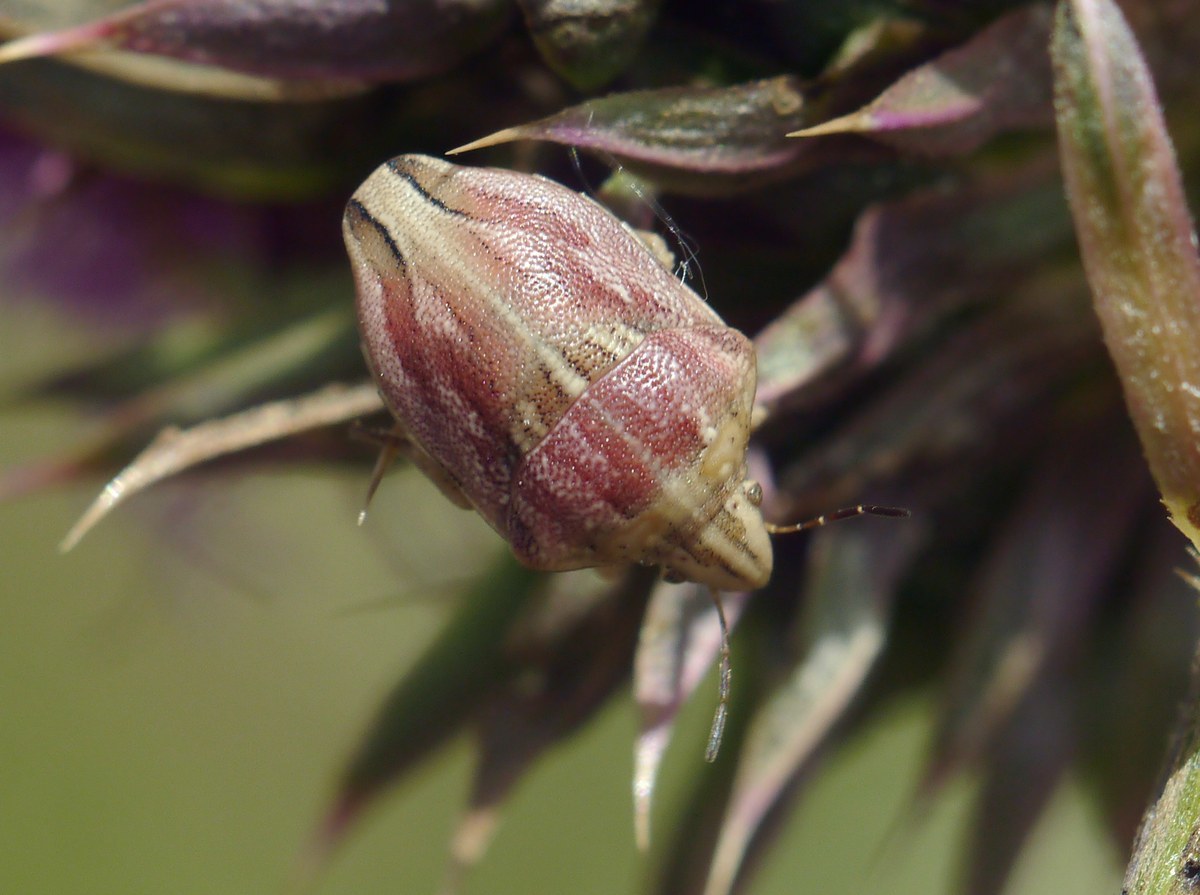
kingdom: Animalia
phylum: Arthropoda
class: Insecta
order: Hemiptera
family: Scutelleridae
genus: Odontotarsus
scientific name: Odontotarsus purpureolineatus
